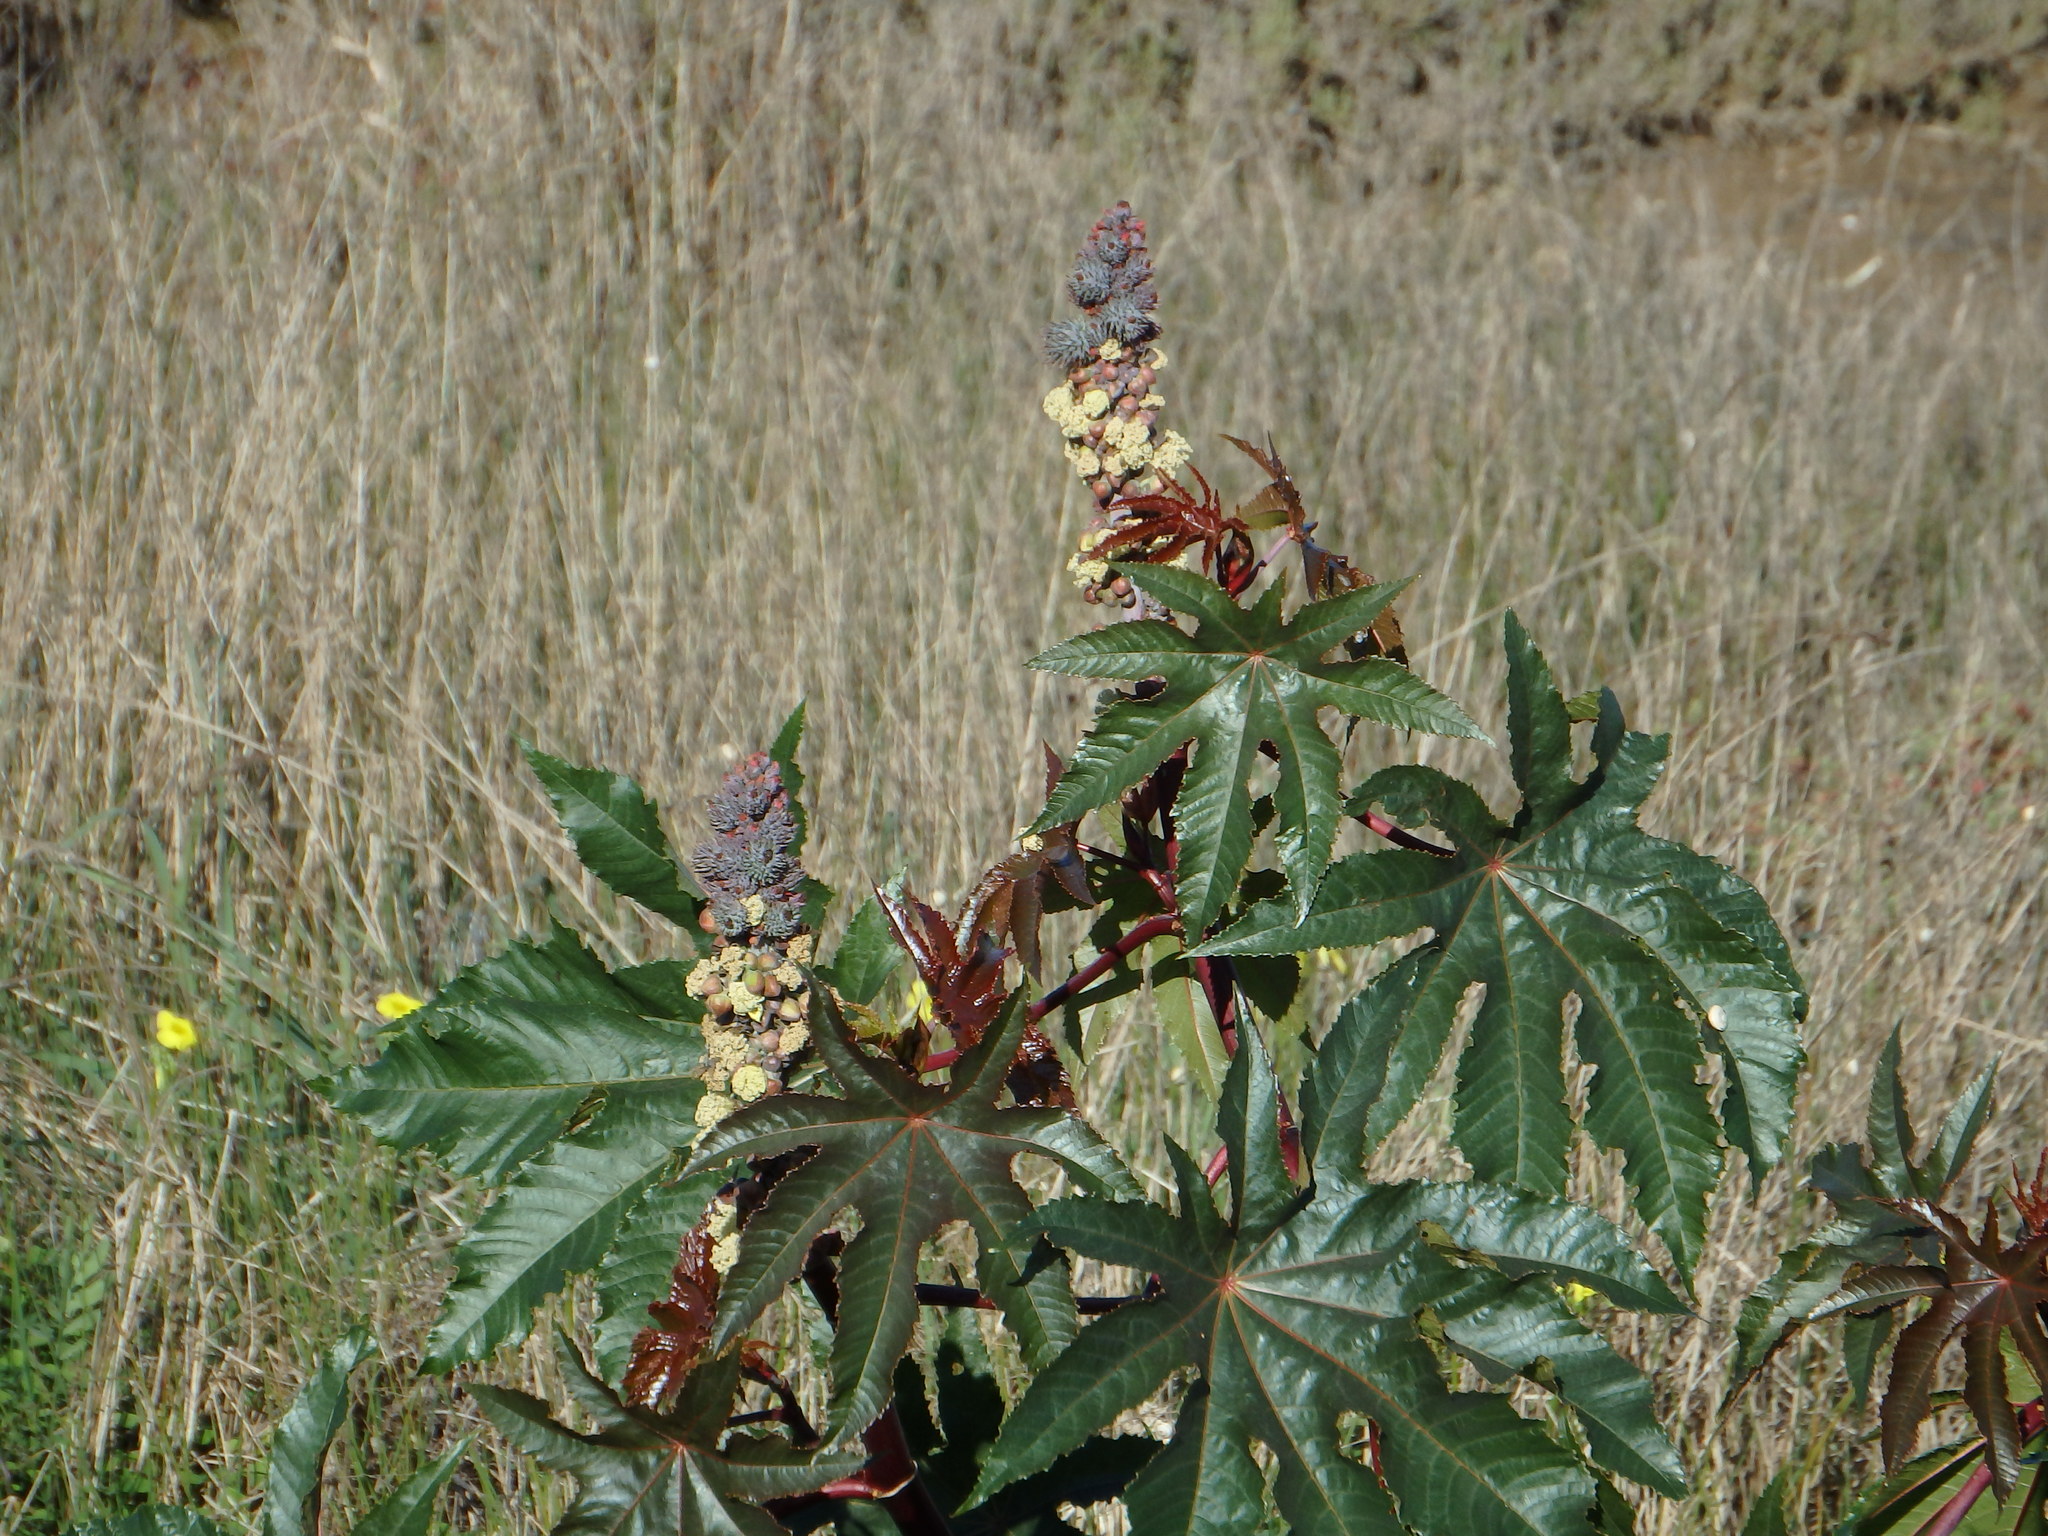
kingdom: Plantae
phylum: Tracheophyta
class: Magnoliopsida
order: Malpighiales
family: Euphorbiaceae
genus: Ricinus
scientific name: Ricinus communis
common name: Castor-oil-plant
